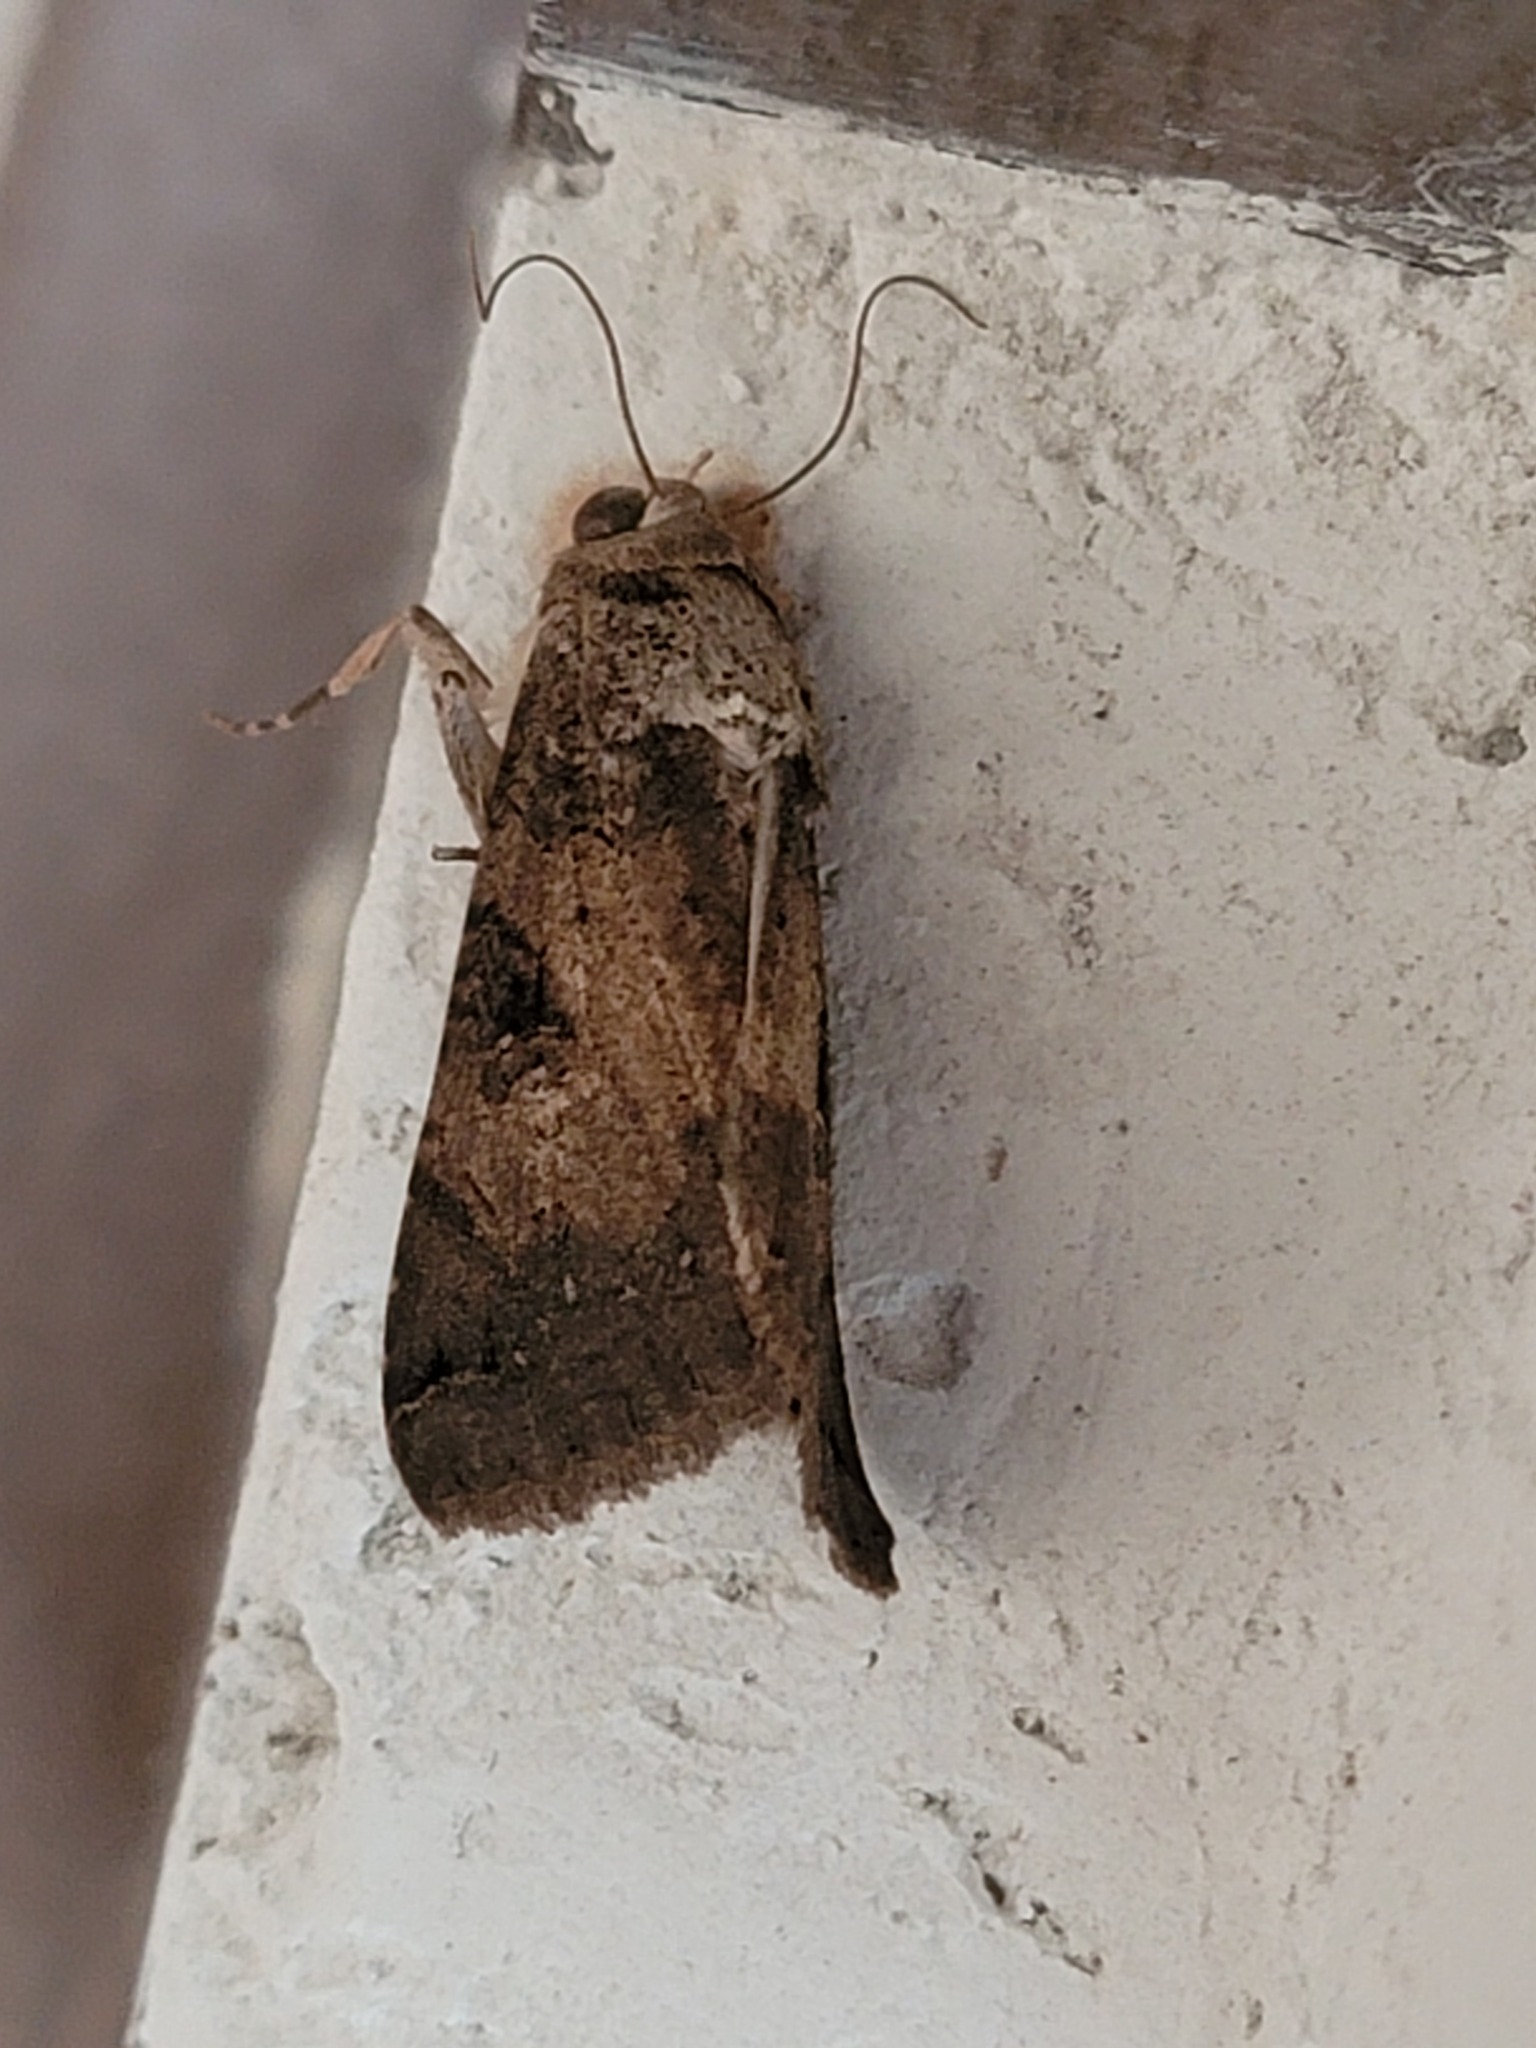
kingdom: Animalia
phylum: Arthropoda
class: Insecta
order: Lepidoptera
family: Erebidae
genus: Melipotis
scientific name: Melipotis agrotoides
